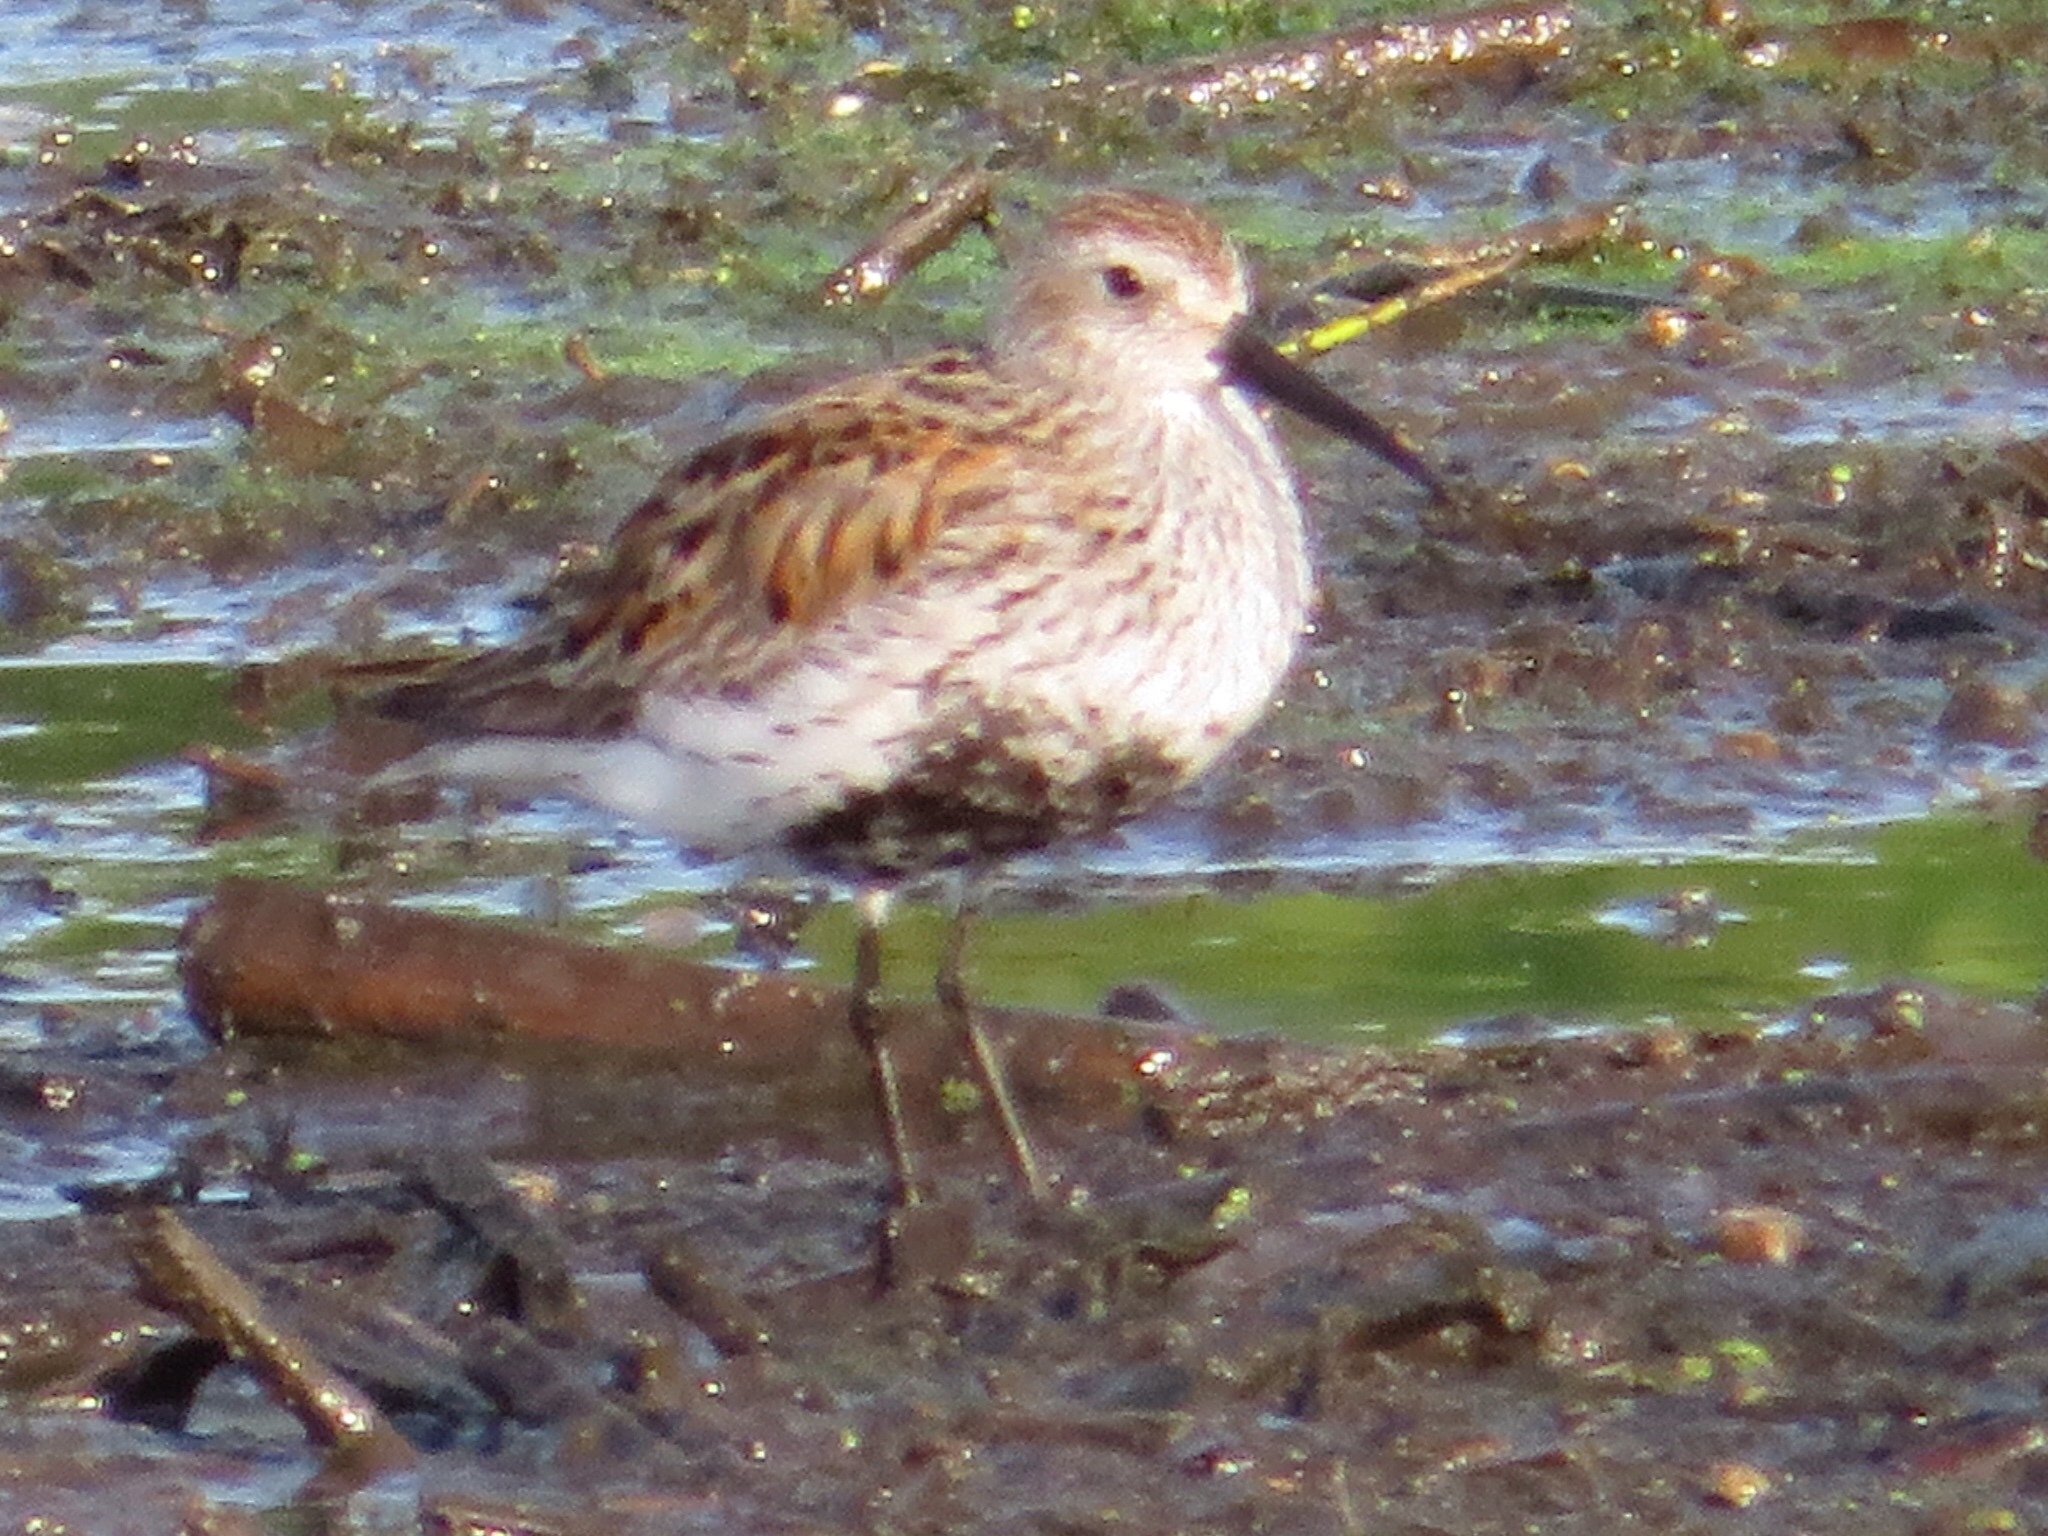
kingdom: Animalia
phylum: Chordata
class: Aves
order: Charadriiformes
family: Scolopacidae
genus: Calidris
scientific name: Calidris alpina
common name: Dunlin
